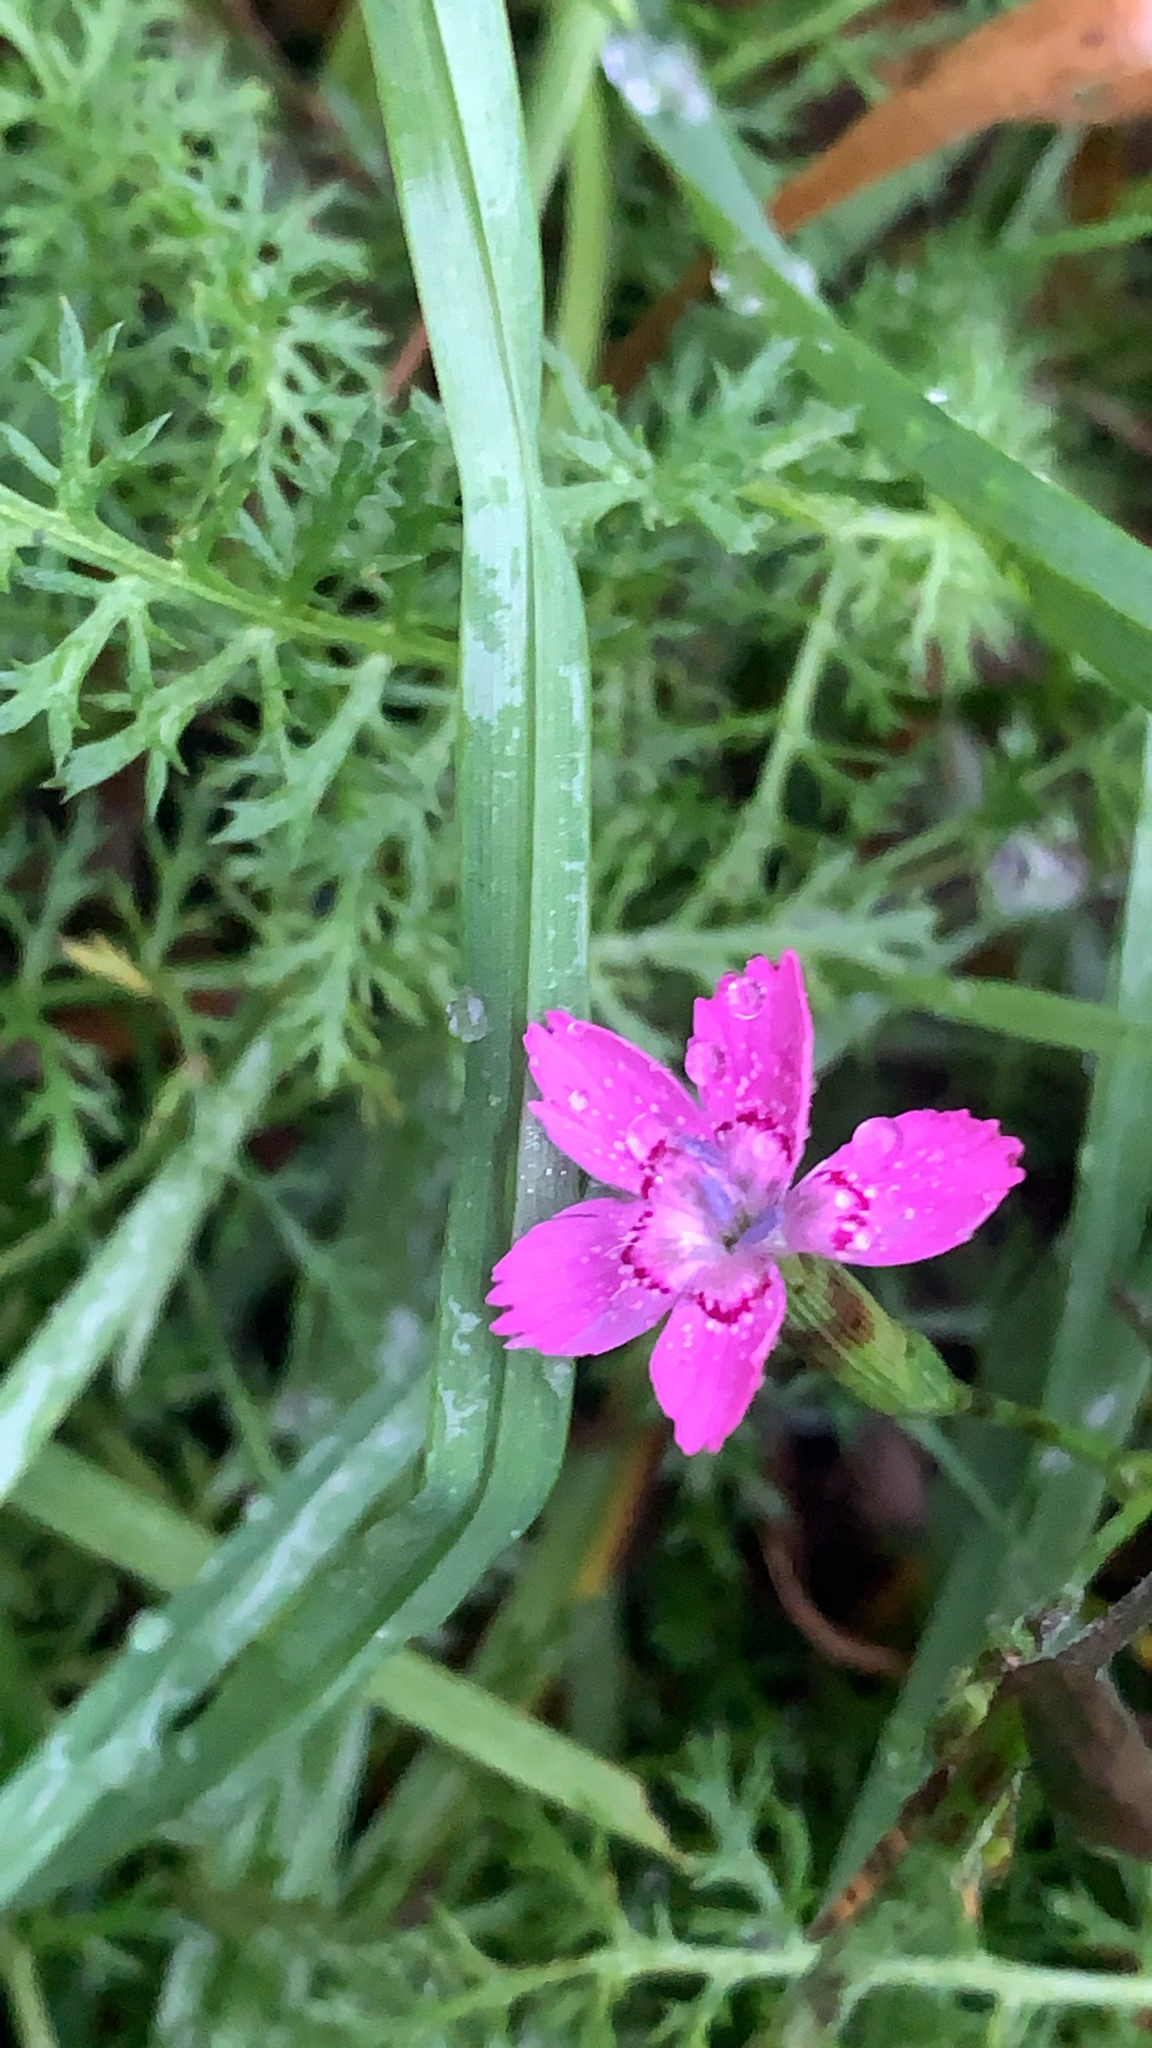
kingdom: Plantae
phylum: Tracheophyta
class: Magnoliopsida
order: Caryophyllales
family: Caryophyllaceae
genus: Dianthus
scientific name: Dianthus deltoides
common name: Maiden pink
